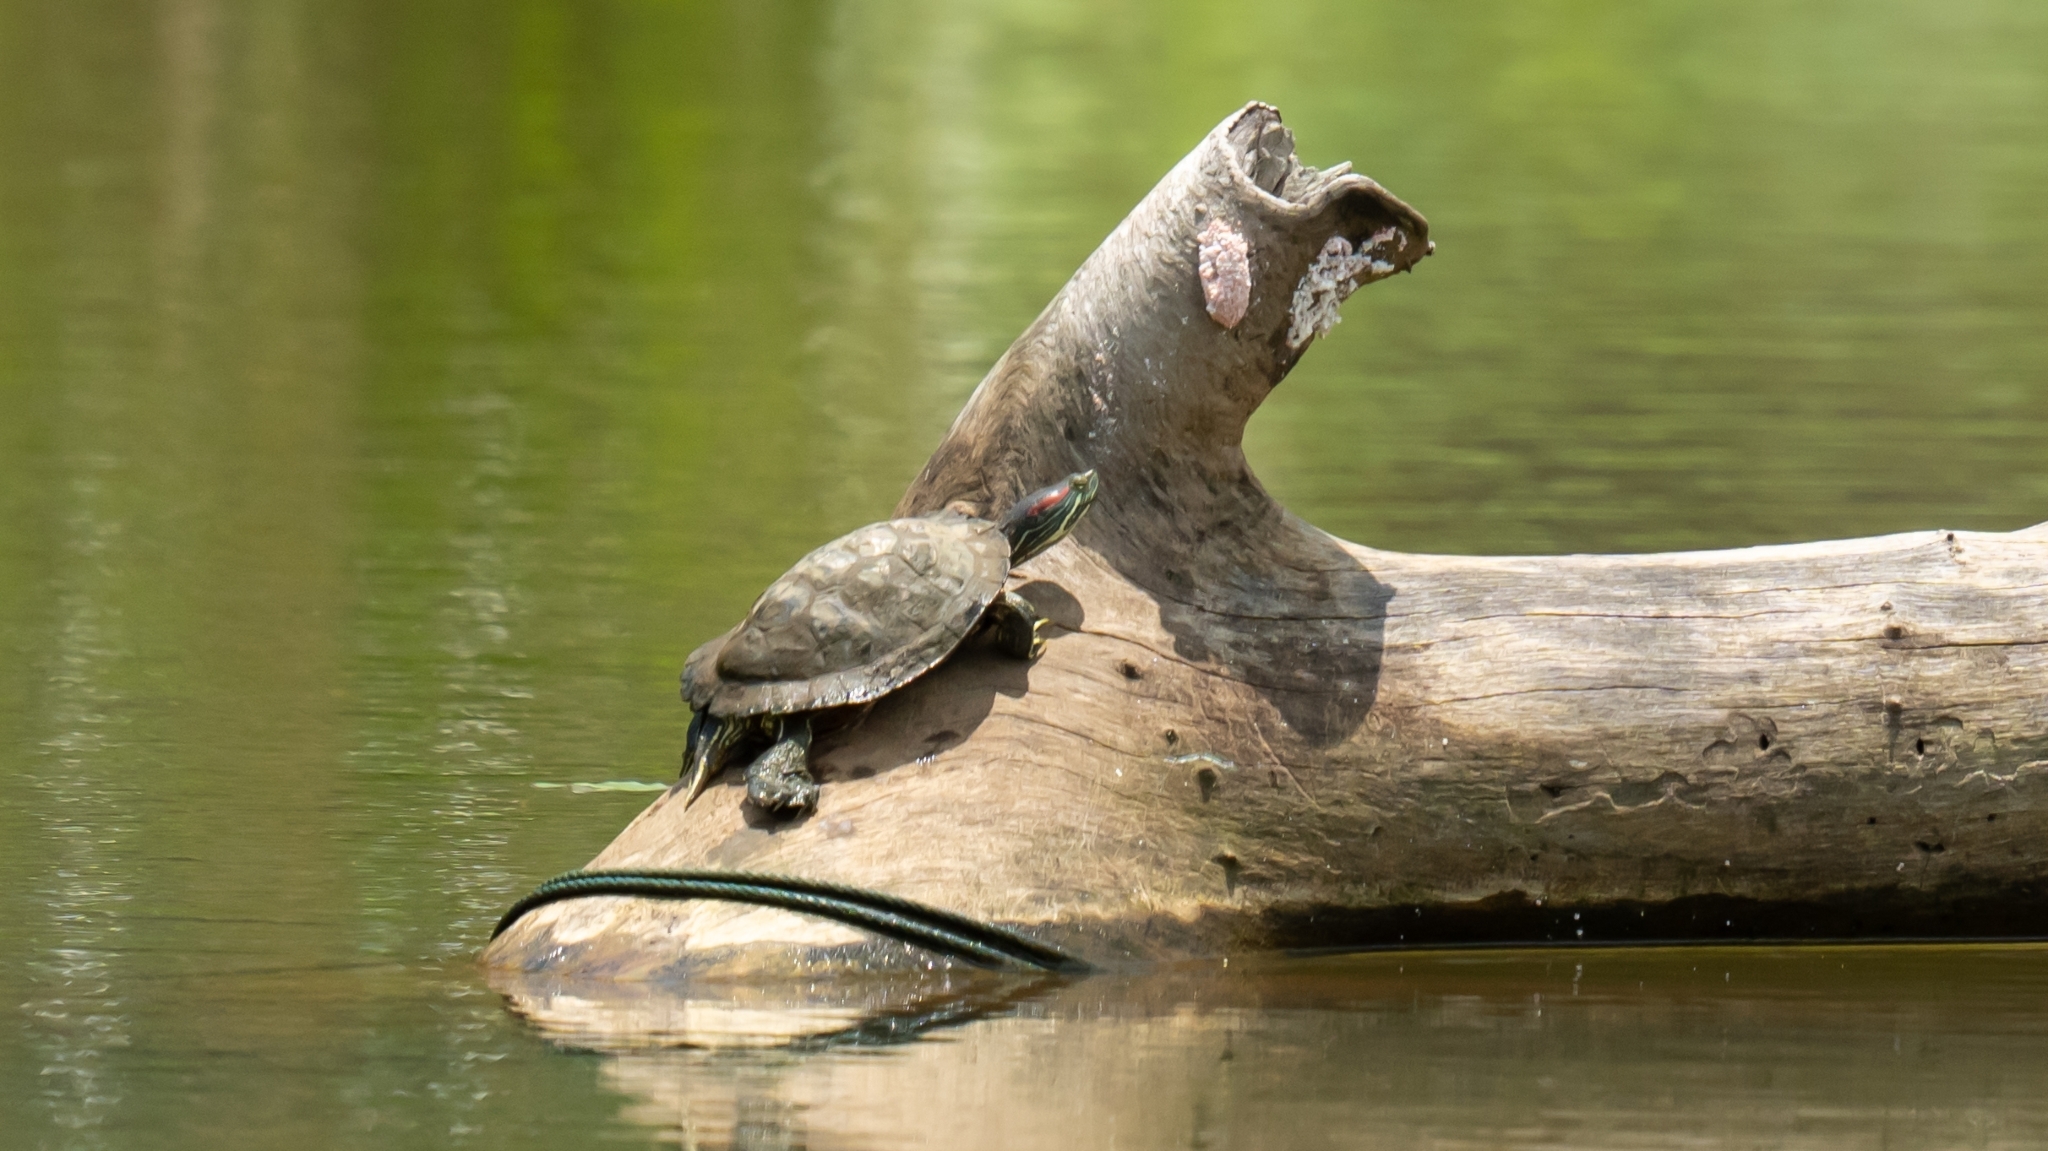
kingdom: Animalia
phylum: Chordata
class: Testudines
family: Emydidae
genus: Trachemys
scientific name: Trachemys scripta
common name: Slider
